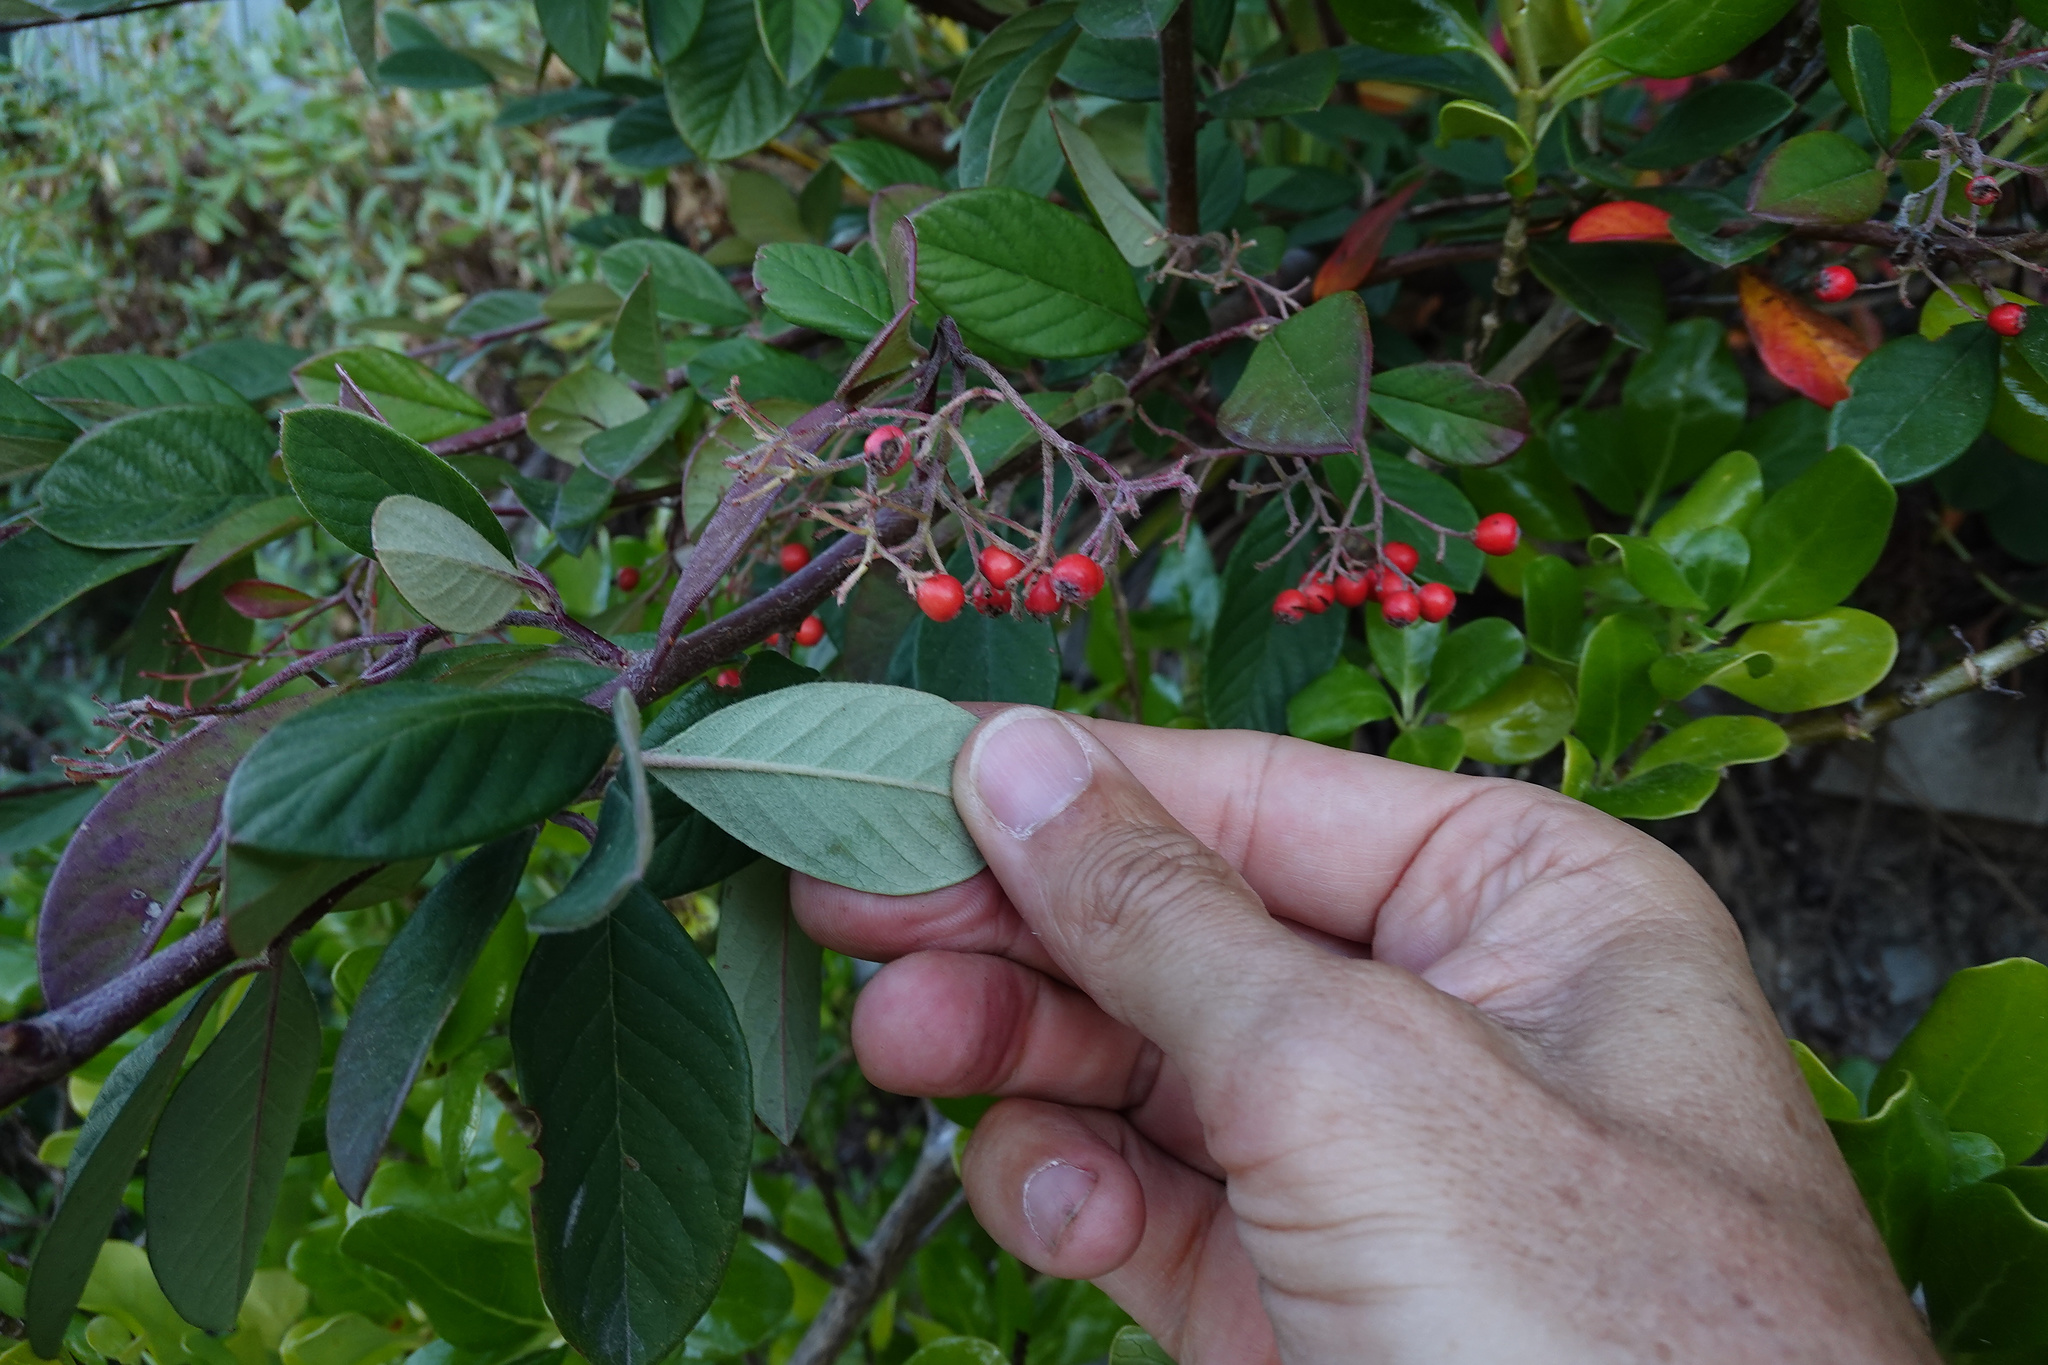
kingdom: Plantae
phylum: Tracheophyta
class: Magnoliopsida
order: Rosales
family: Rosaceae
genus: Cotoneaster
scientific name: Cotoneaster coriaceus
